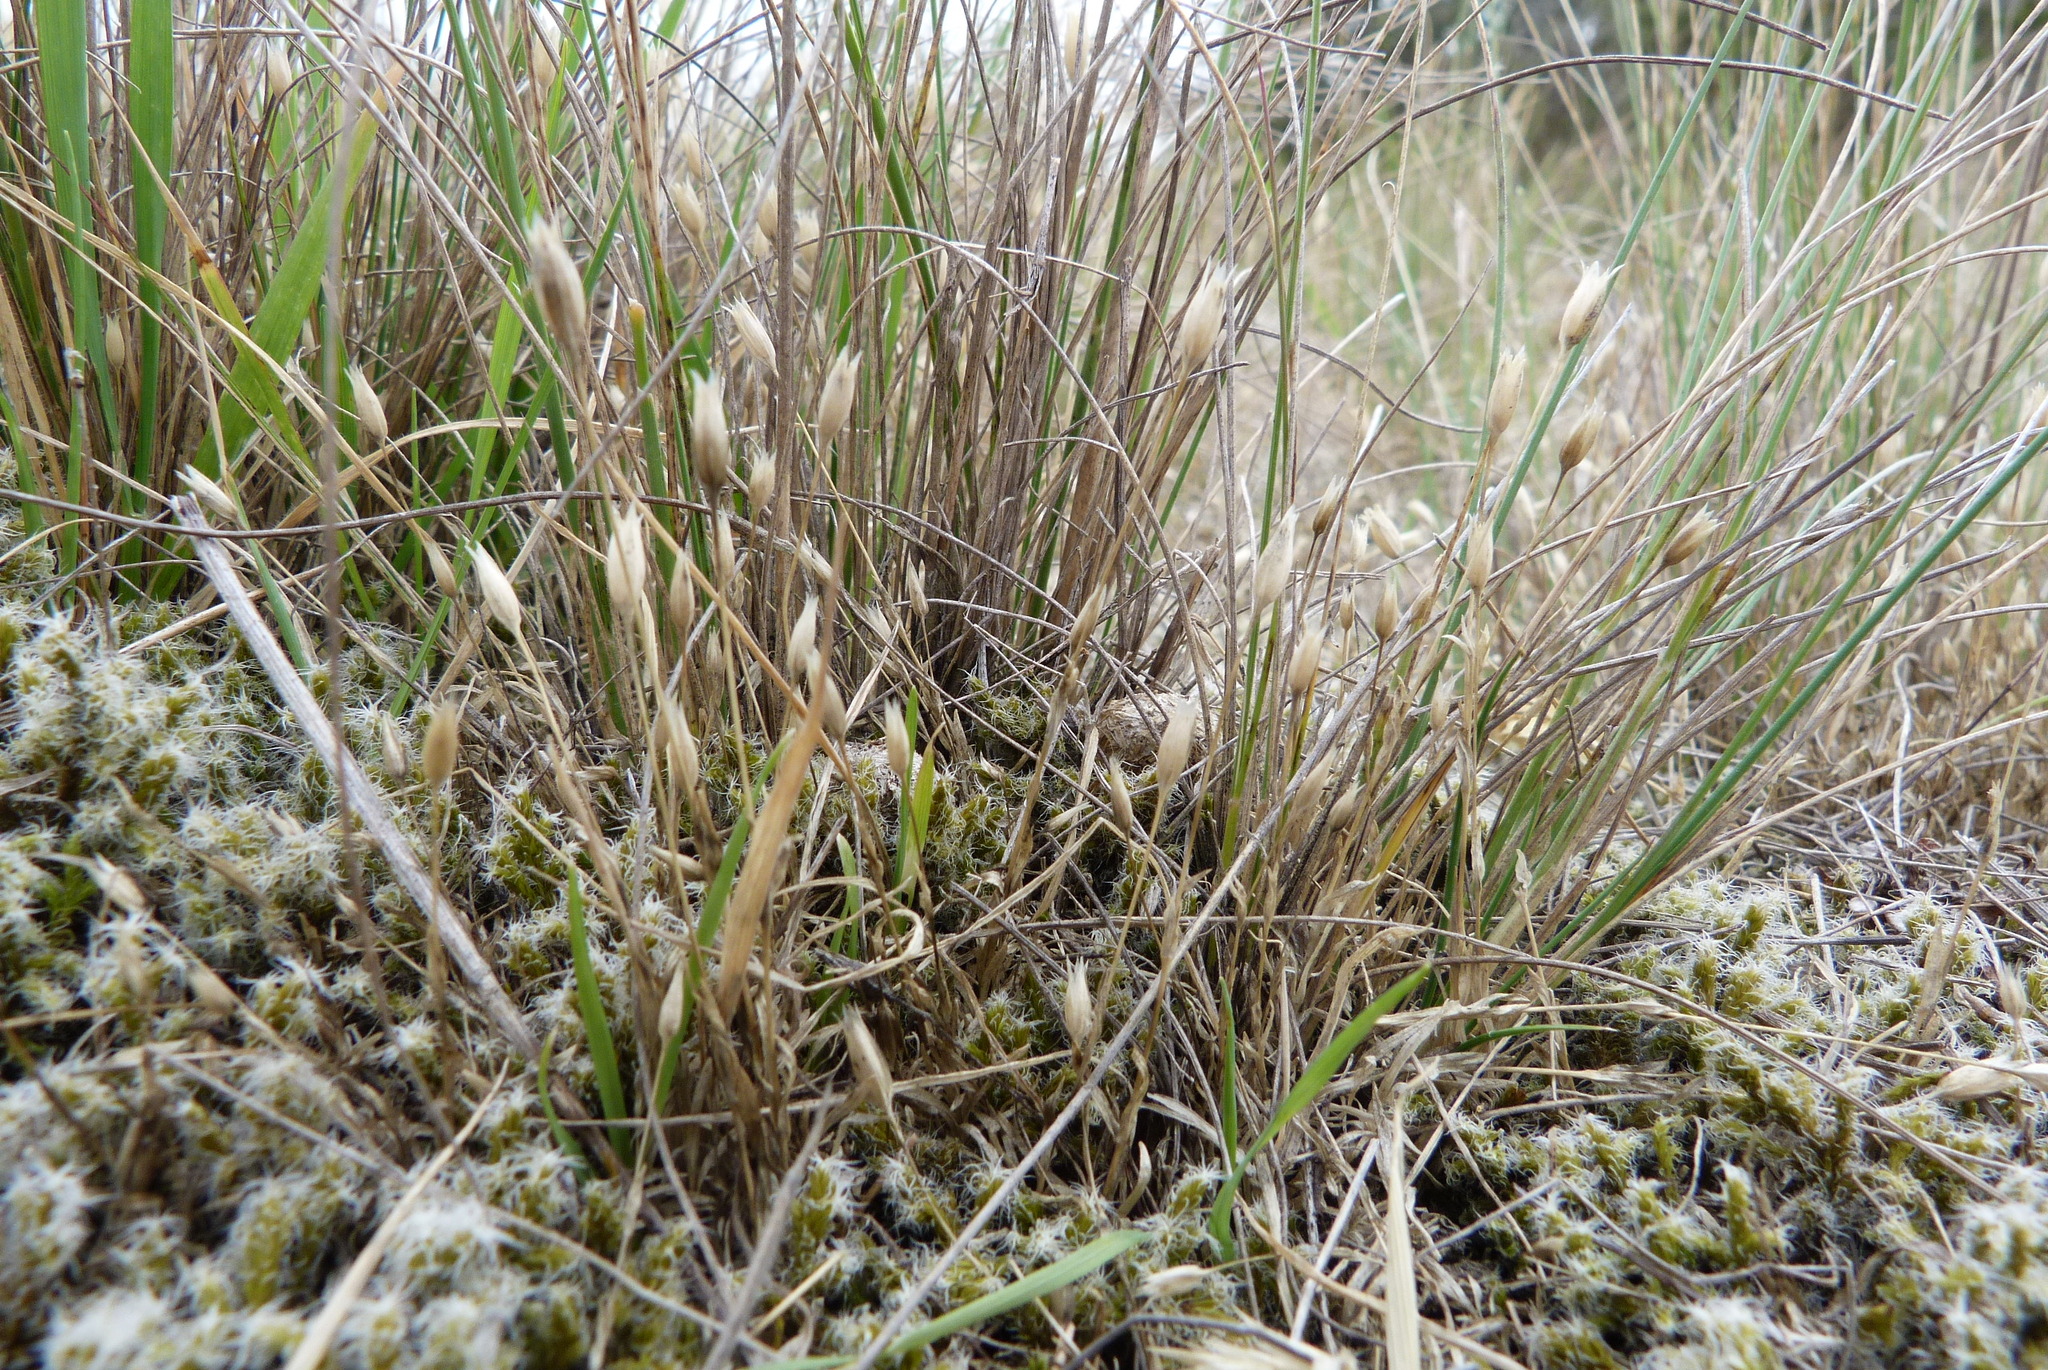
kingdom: Plantae
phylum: Tracheophyta
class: Magnoliopsida
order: Caryophyllales
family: Caryophyllaceae
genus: Moenchia
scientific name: Moenchia erecta
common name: Upright chickweed
